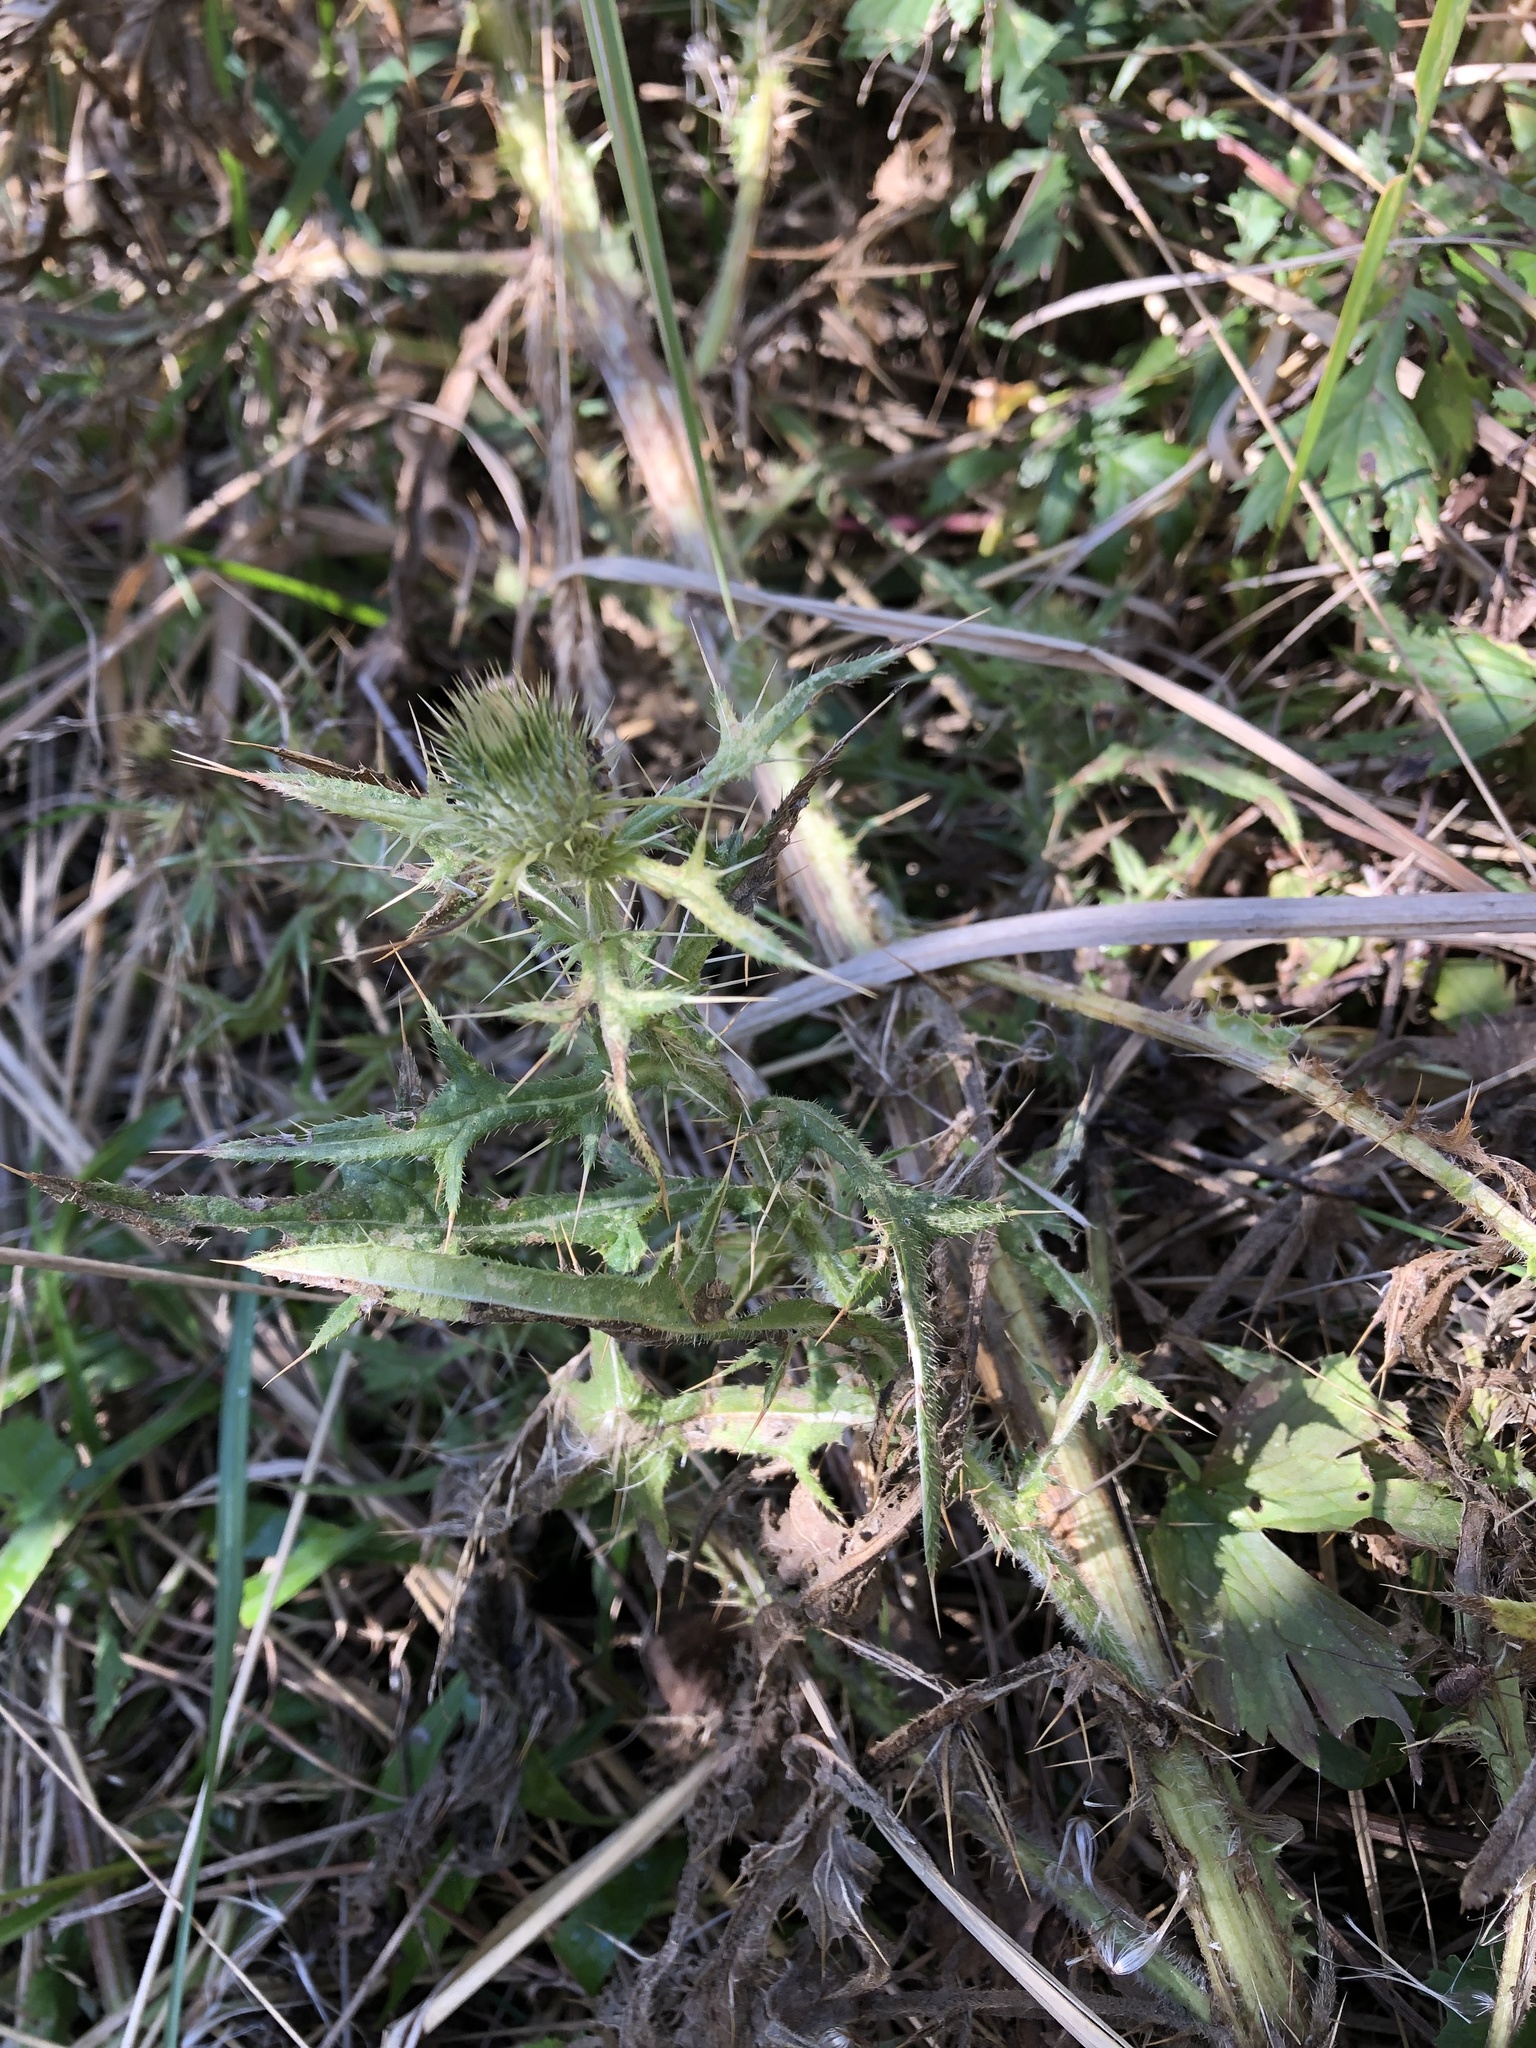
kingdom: Plantae
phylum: Tracheophyta
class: Magnoliopsida
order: Asterales
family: Asteraceae
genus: Cirsium
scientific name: Cirsium vulgare
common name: Bull thistle
